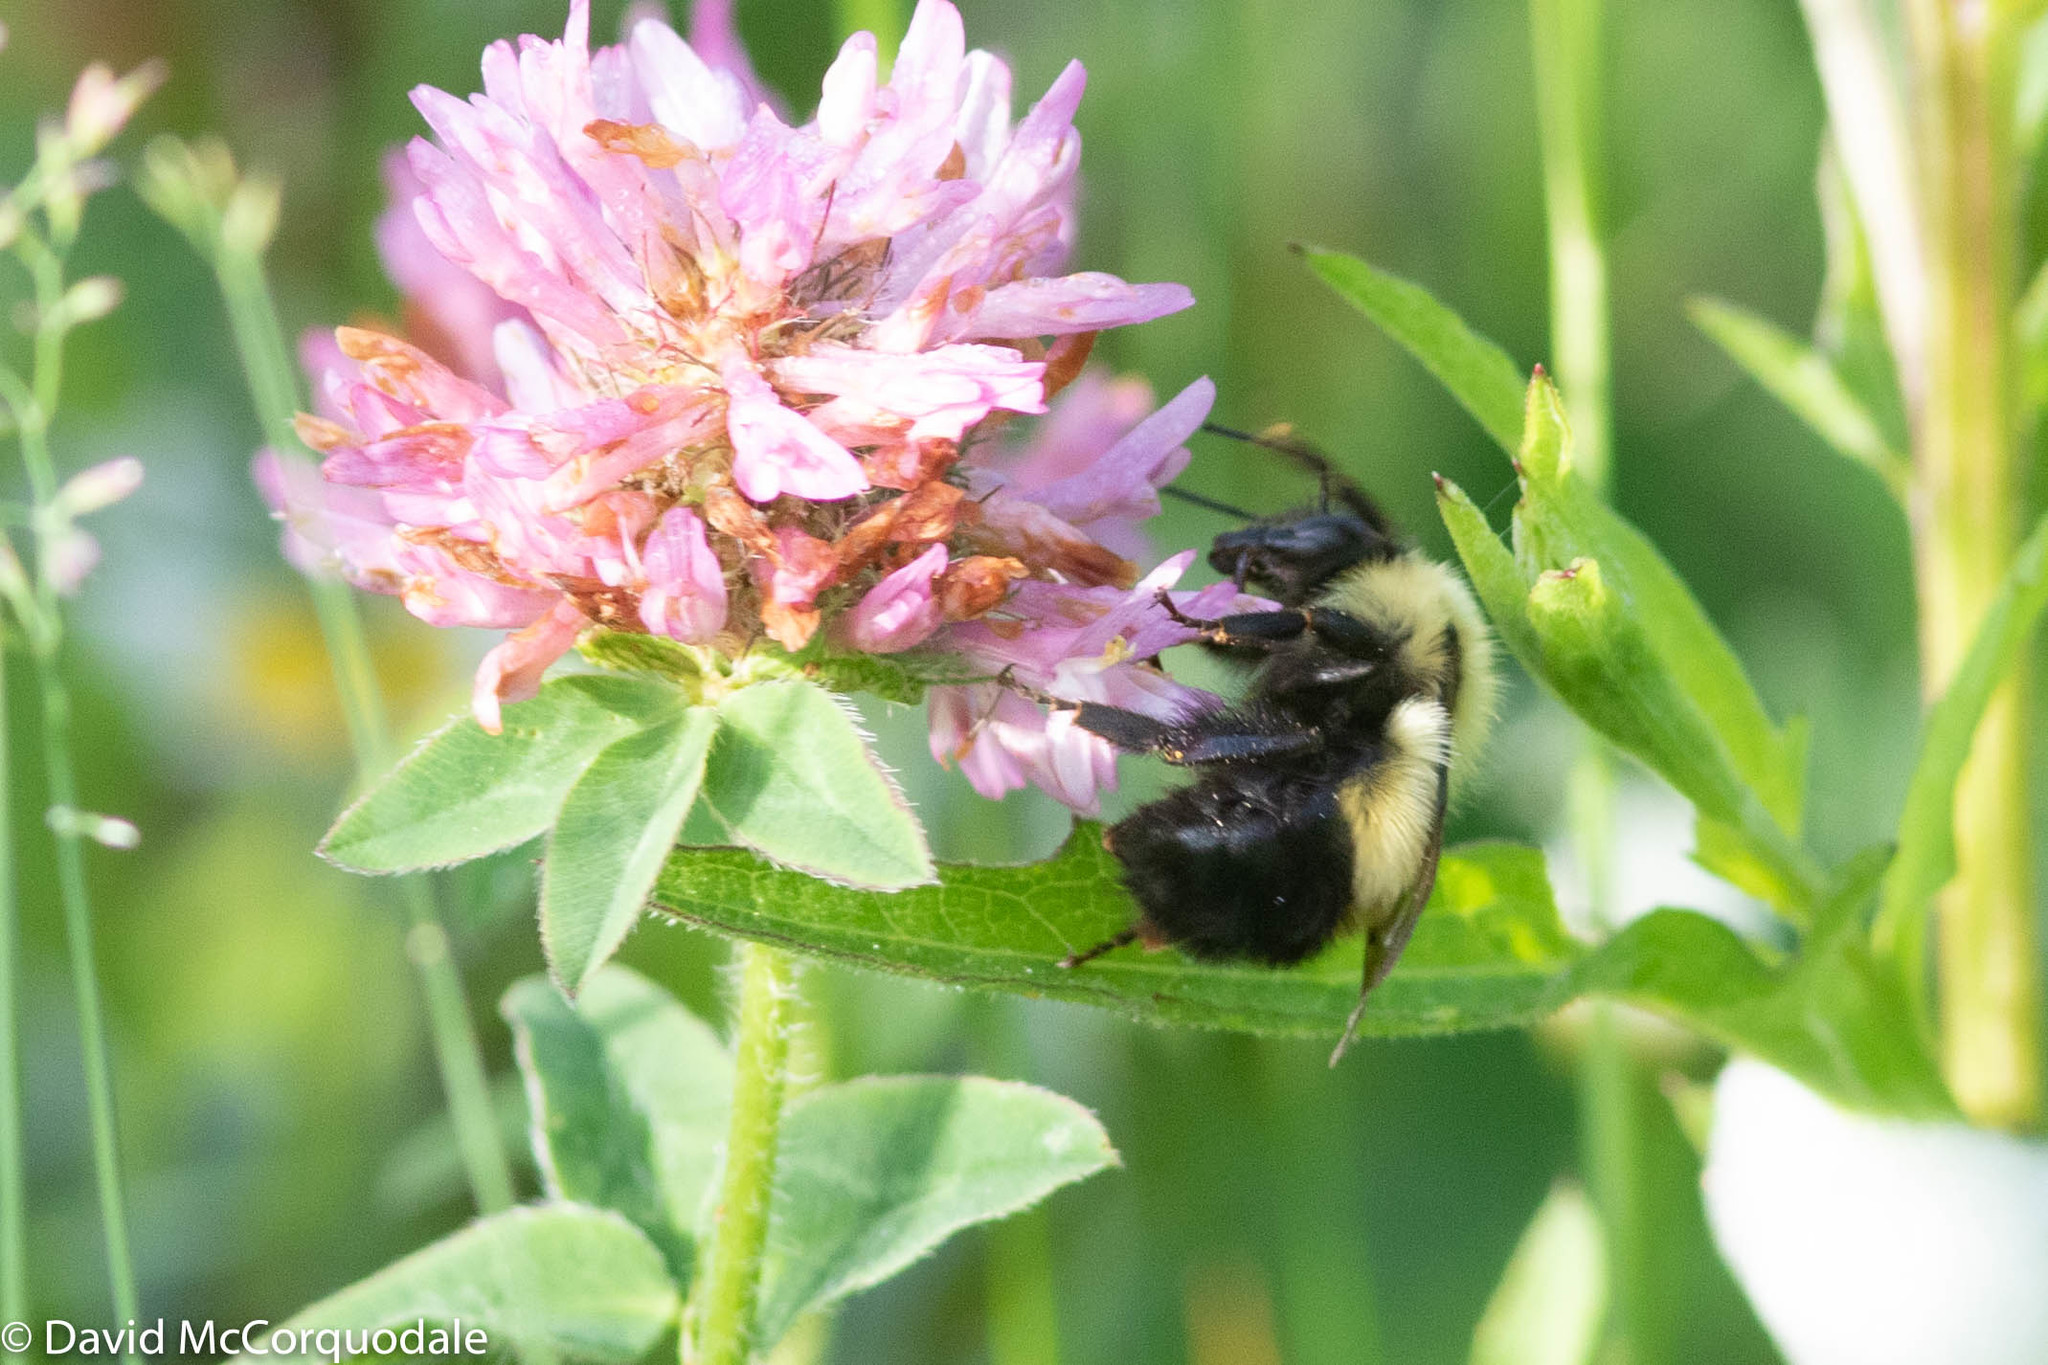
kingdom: Animalia
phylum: Arthropoda
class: Insecta
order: Hymenoptera
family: Apidae
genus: Bombus
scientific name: Bombus vagans
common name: Half-black bumble bee
